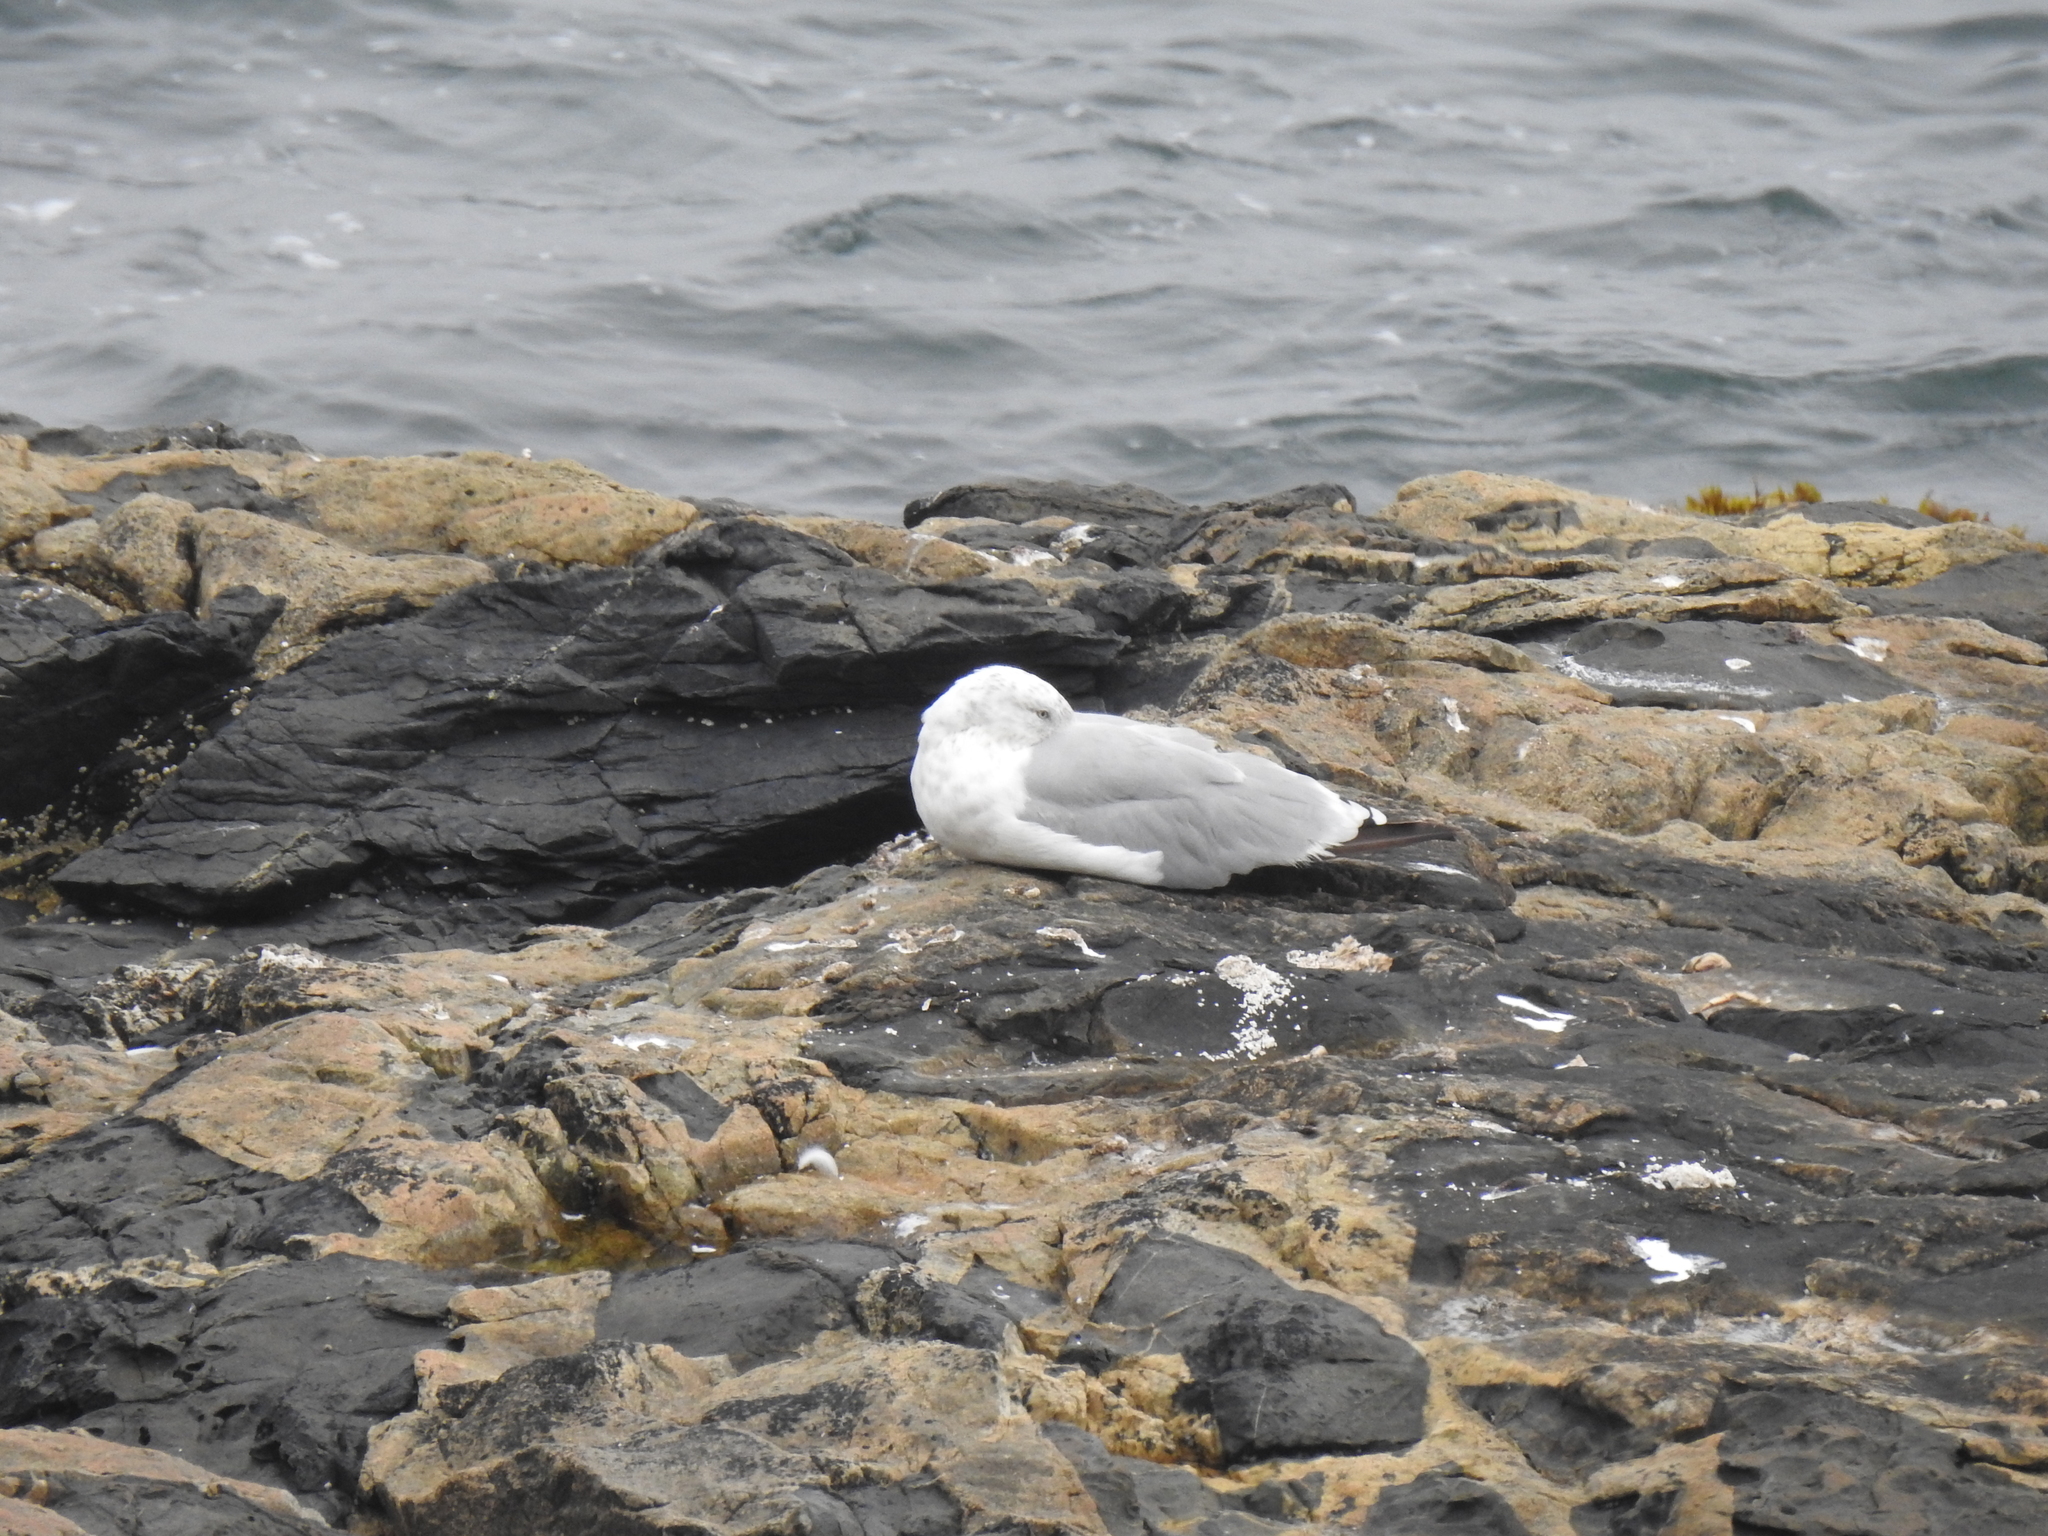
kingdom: Animalia
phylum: Chordata
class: Aves
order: Charadriiformes
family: Laridae
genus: Larus
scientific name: Larus argentatus
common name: Herring gull
